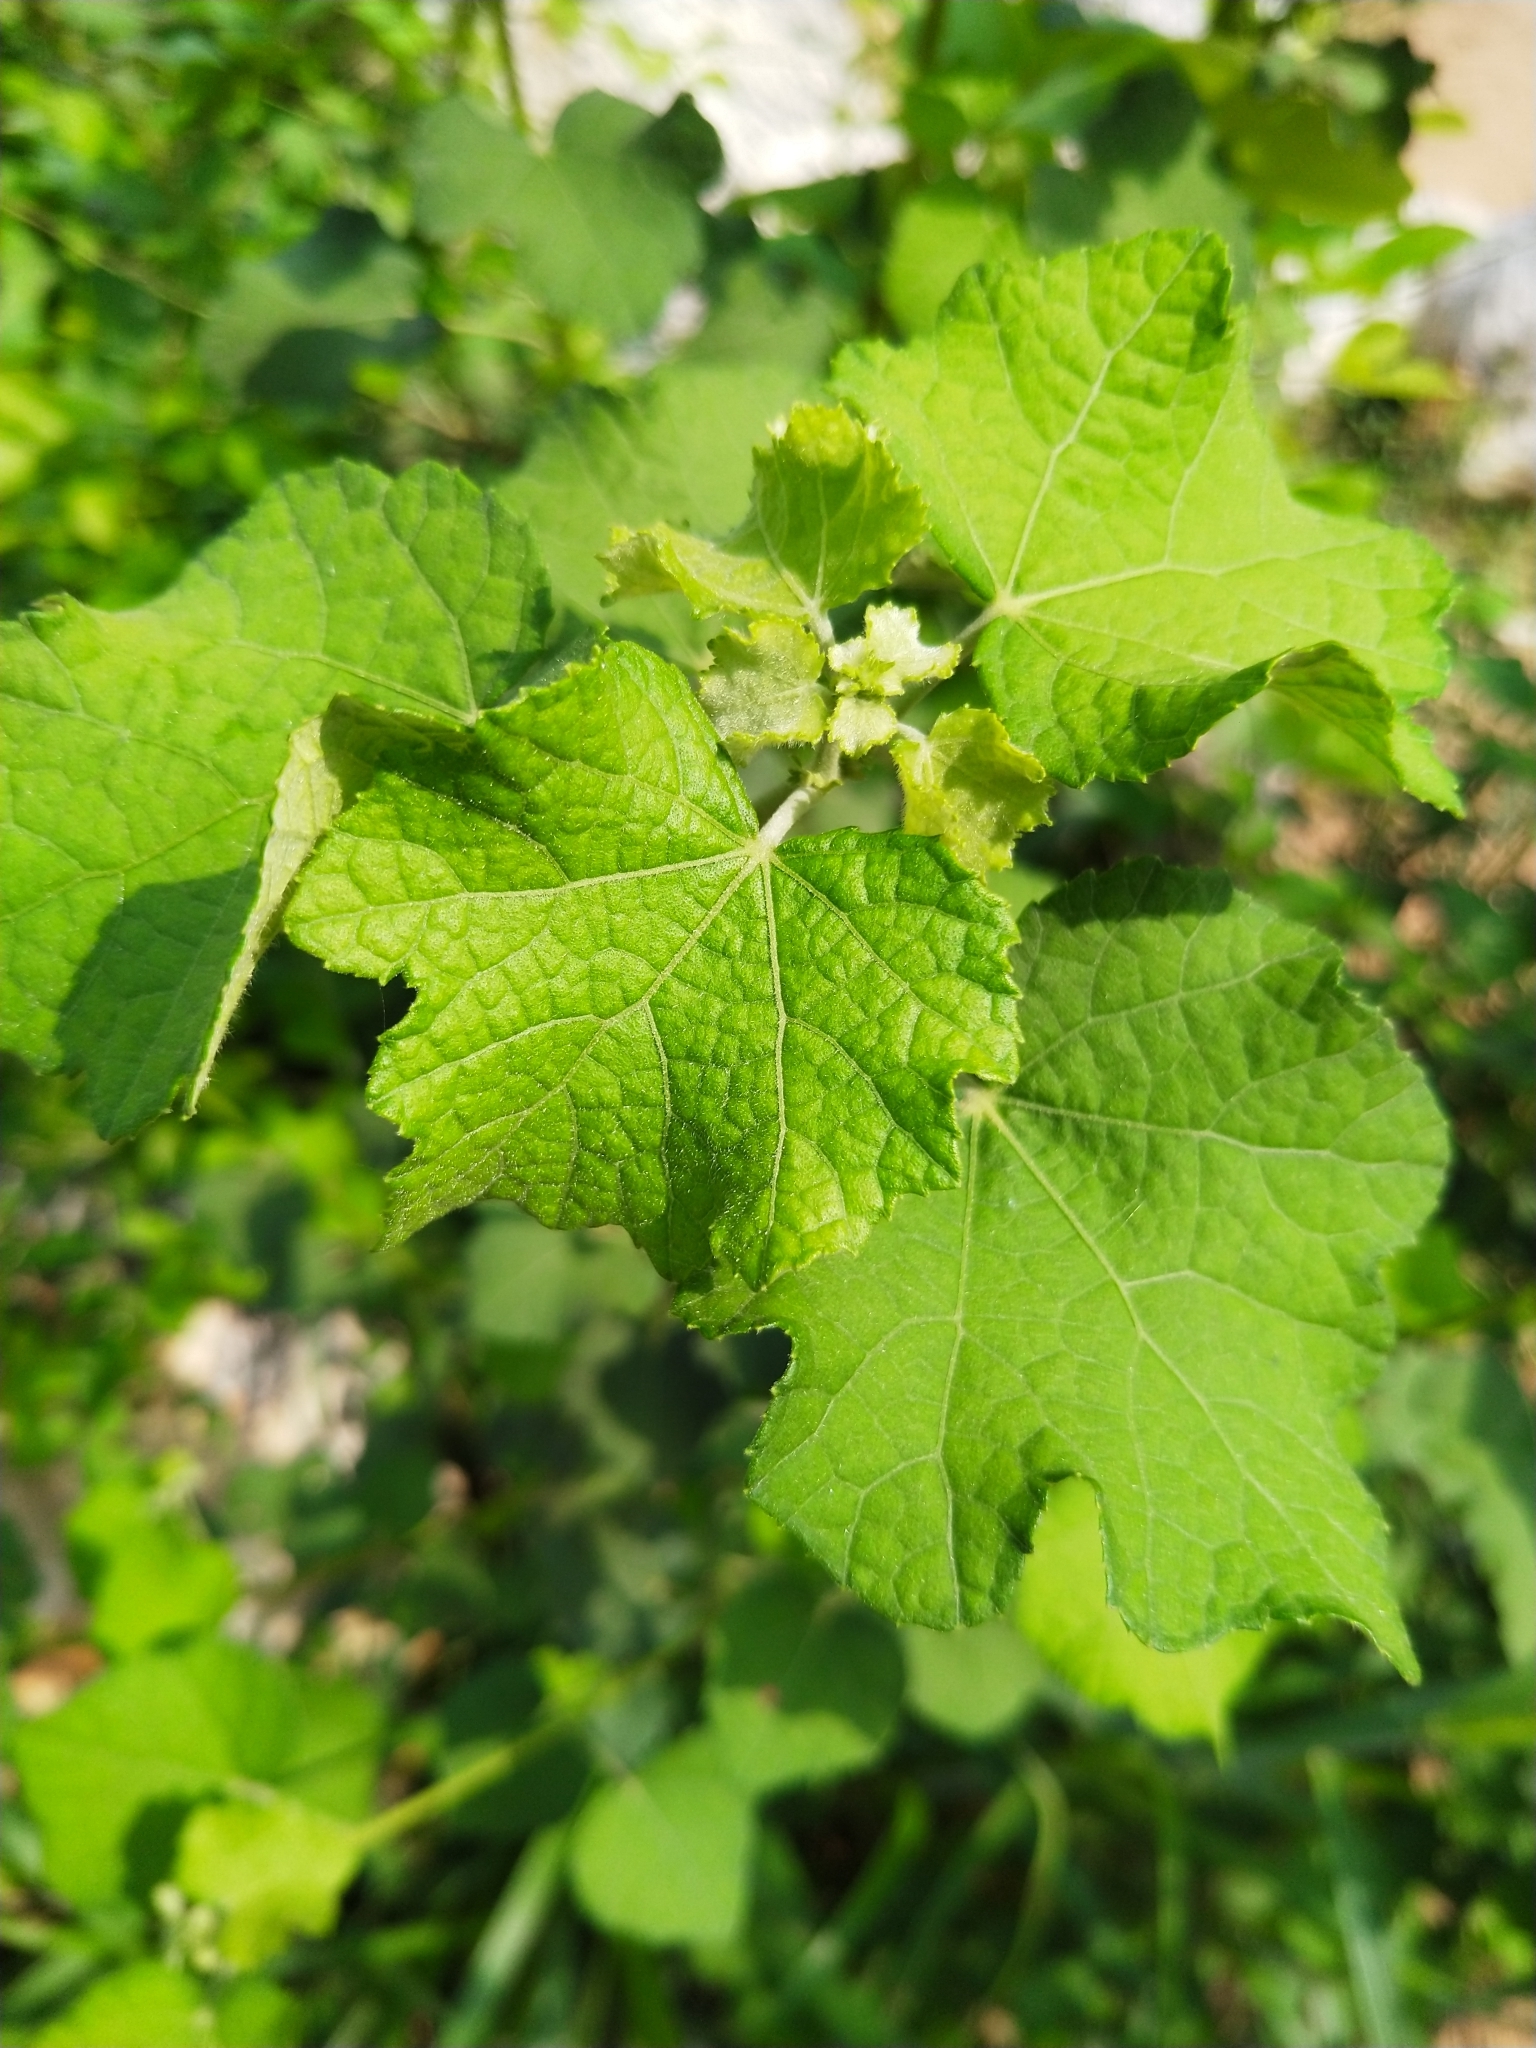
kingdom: Plantae
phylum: Tracheophyta
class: Magnoliopsida
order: Asterales
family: Asteraceae
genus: Xanthium
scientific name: Xanthium strumarium
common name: Rough cocklebur
